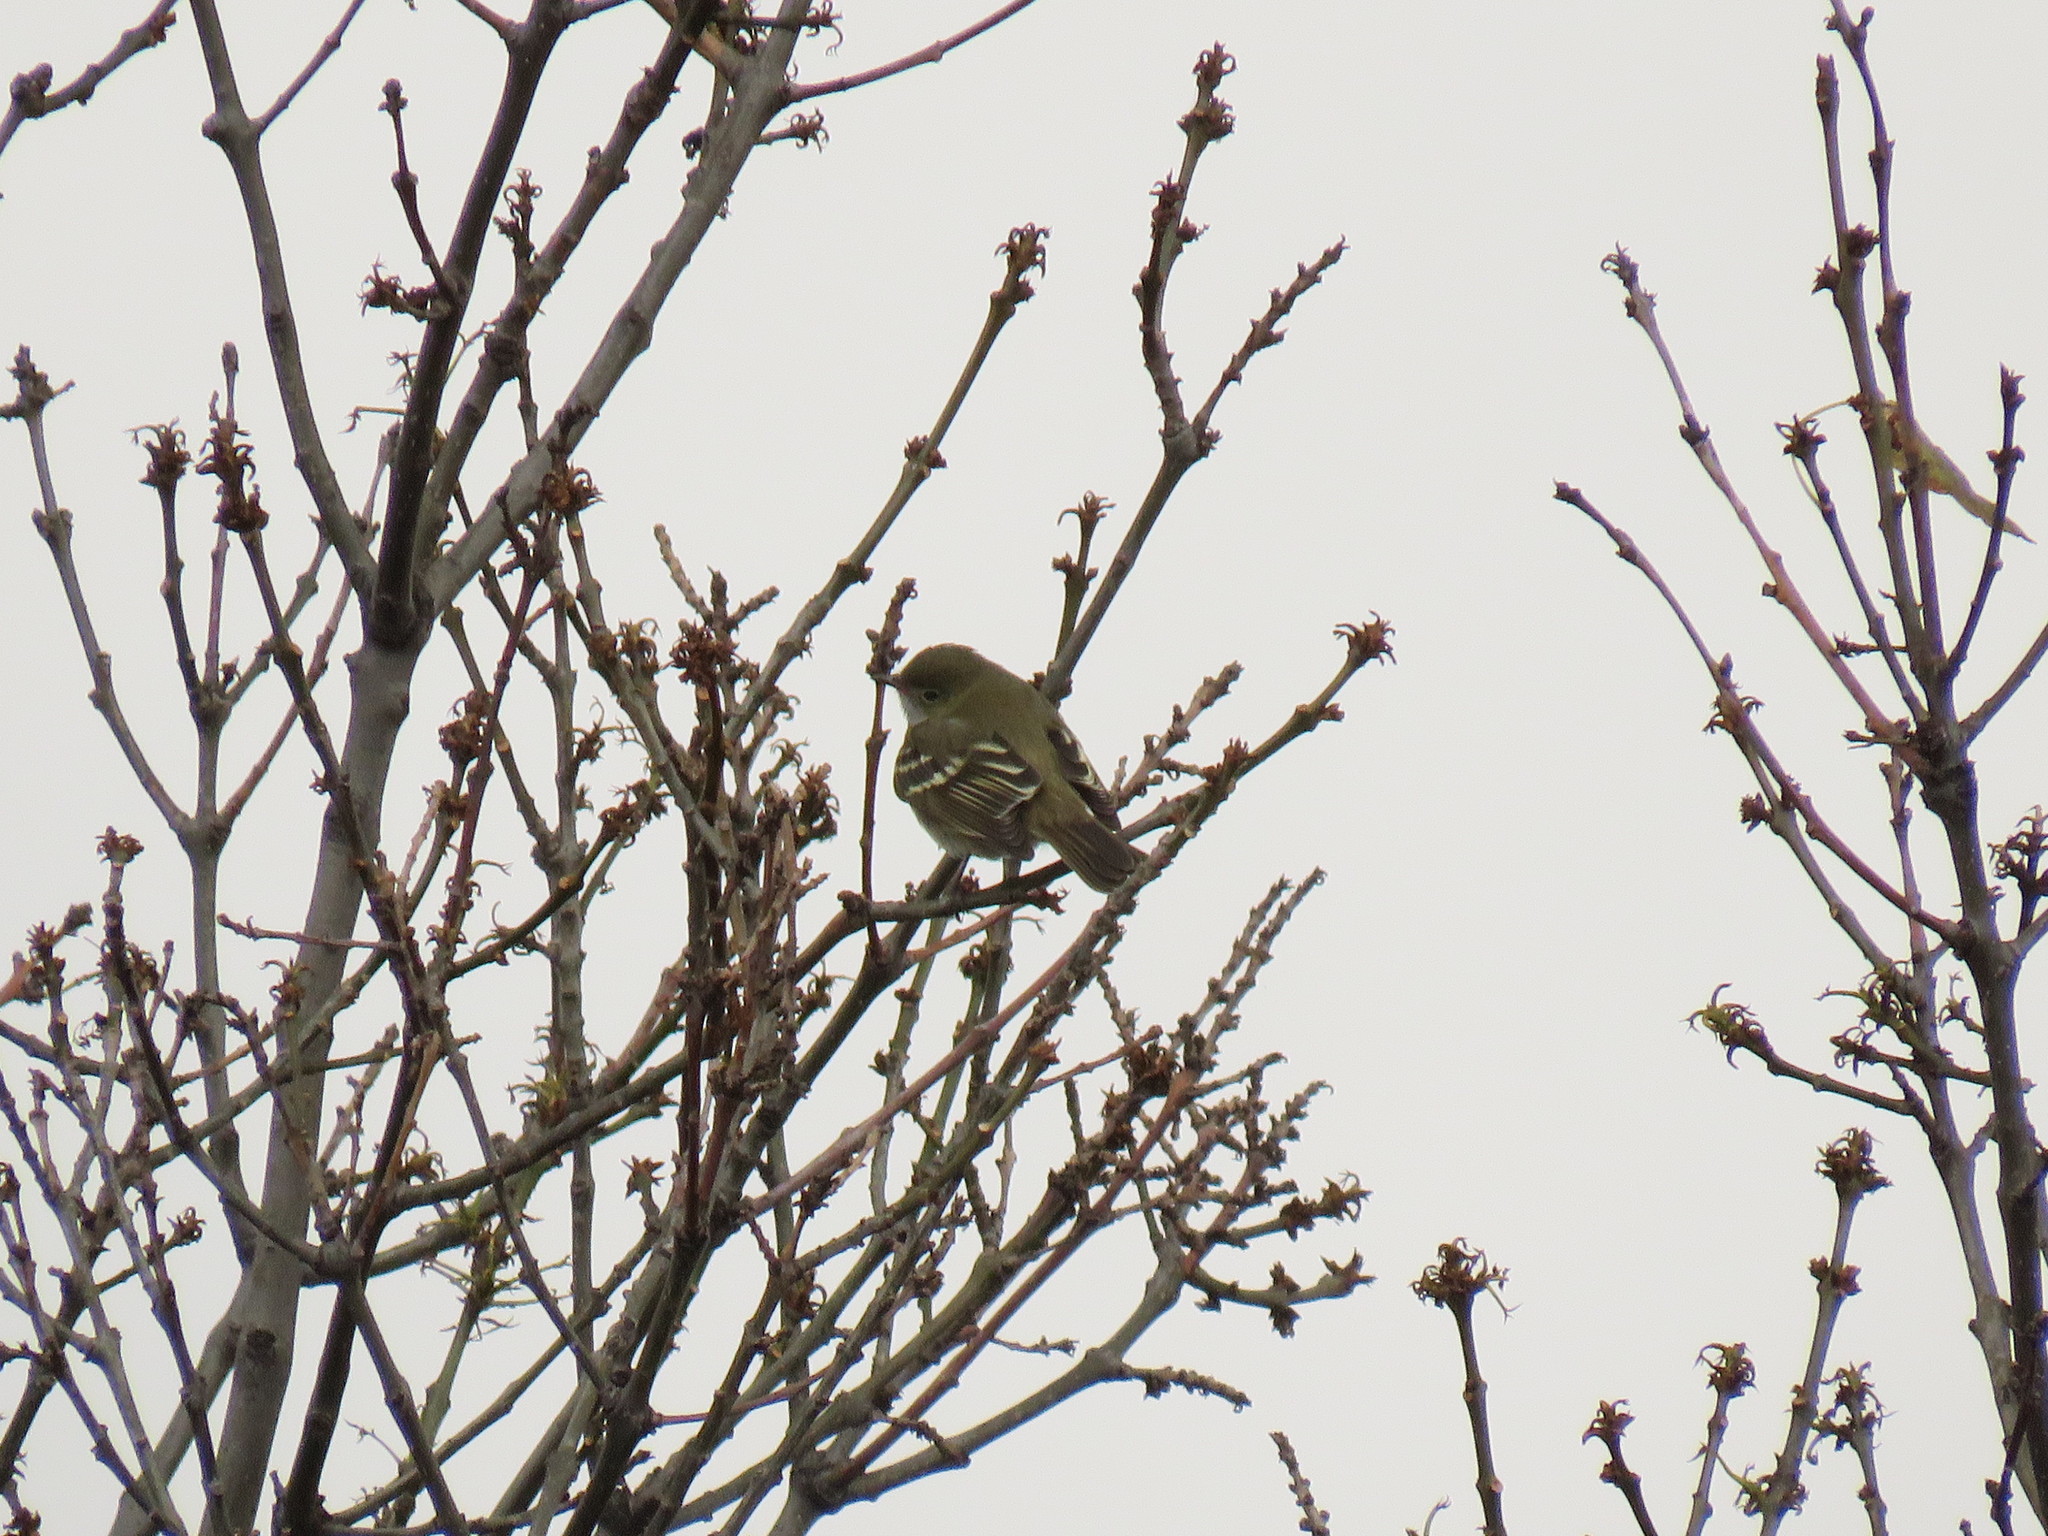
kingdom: Animalia
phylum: Chordata
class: Aves
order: Passeriformes
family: Tyrannidae
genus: Elaenia
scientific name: Elaenia parvirostris
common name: Small-billed elaenia
